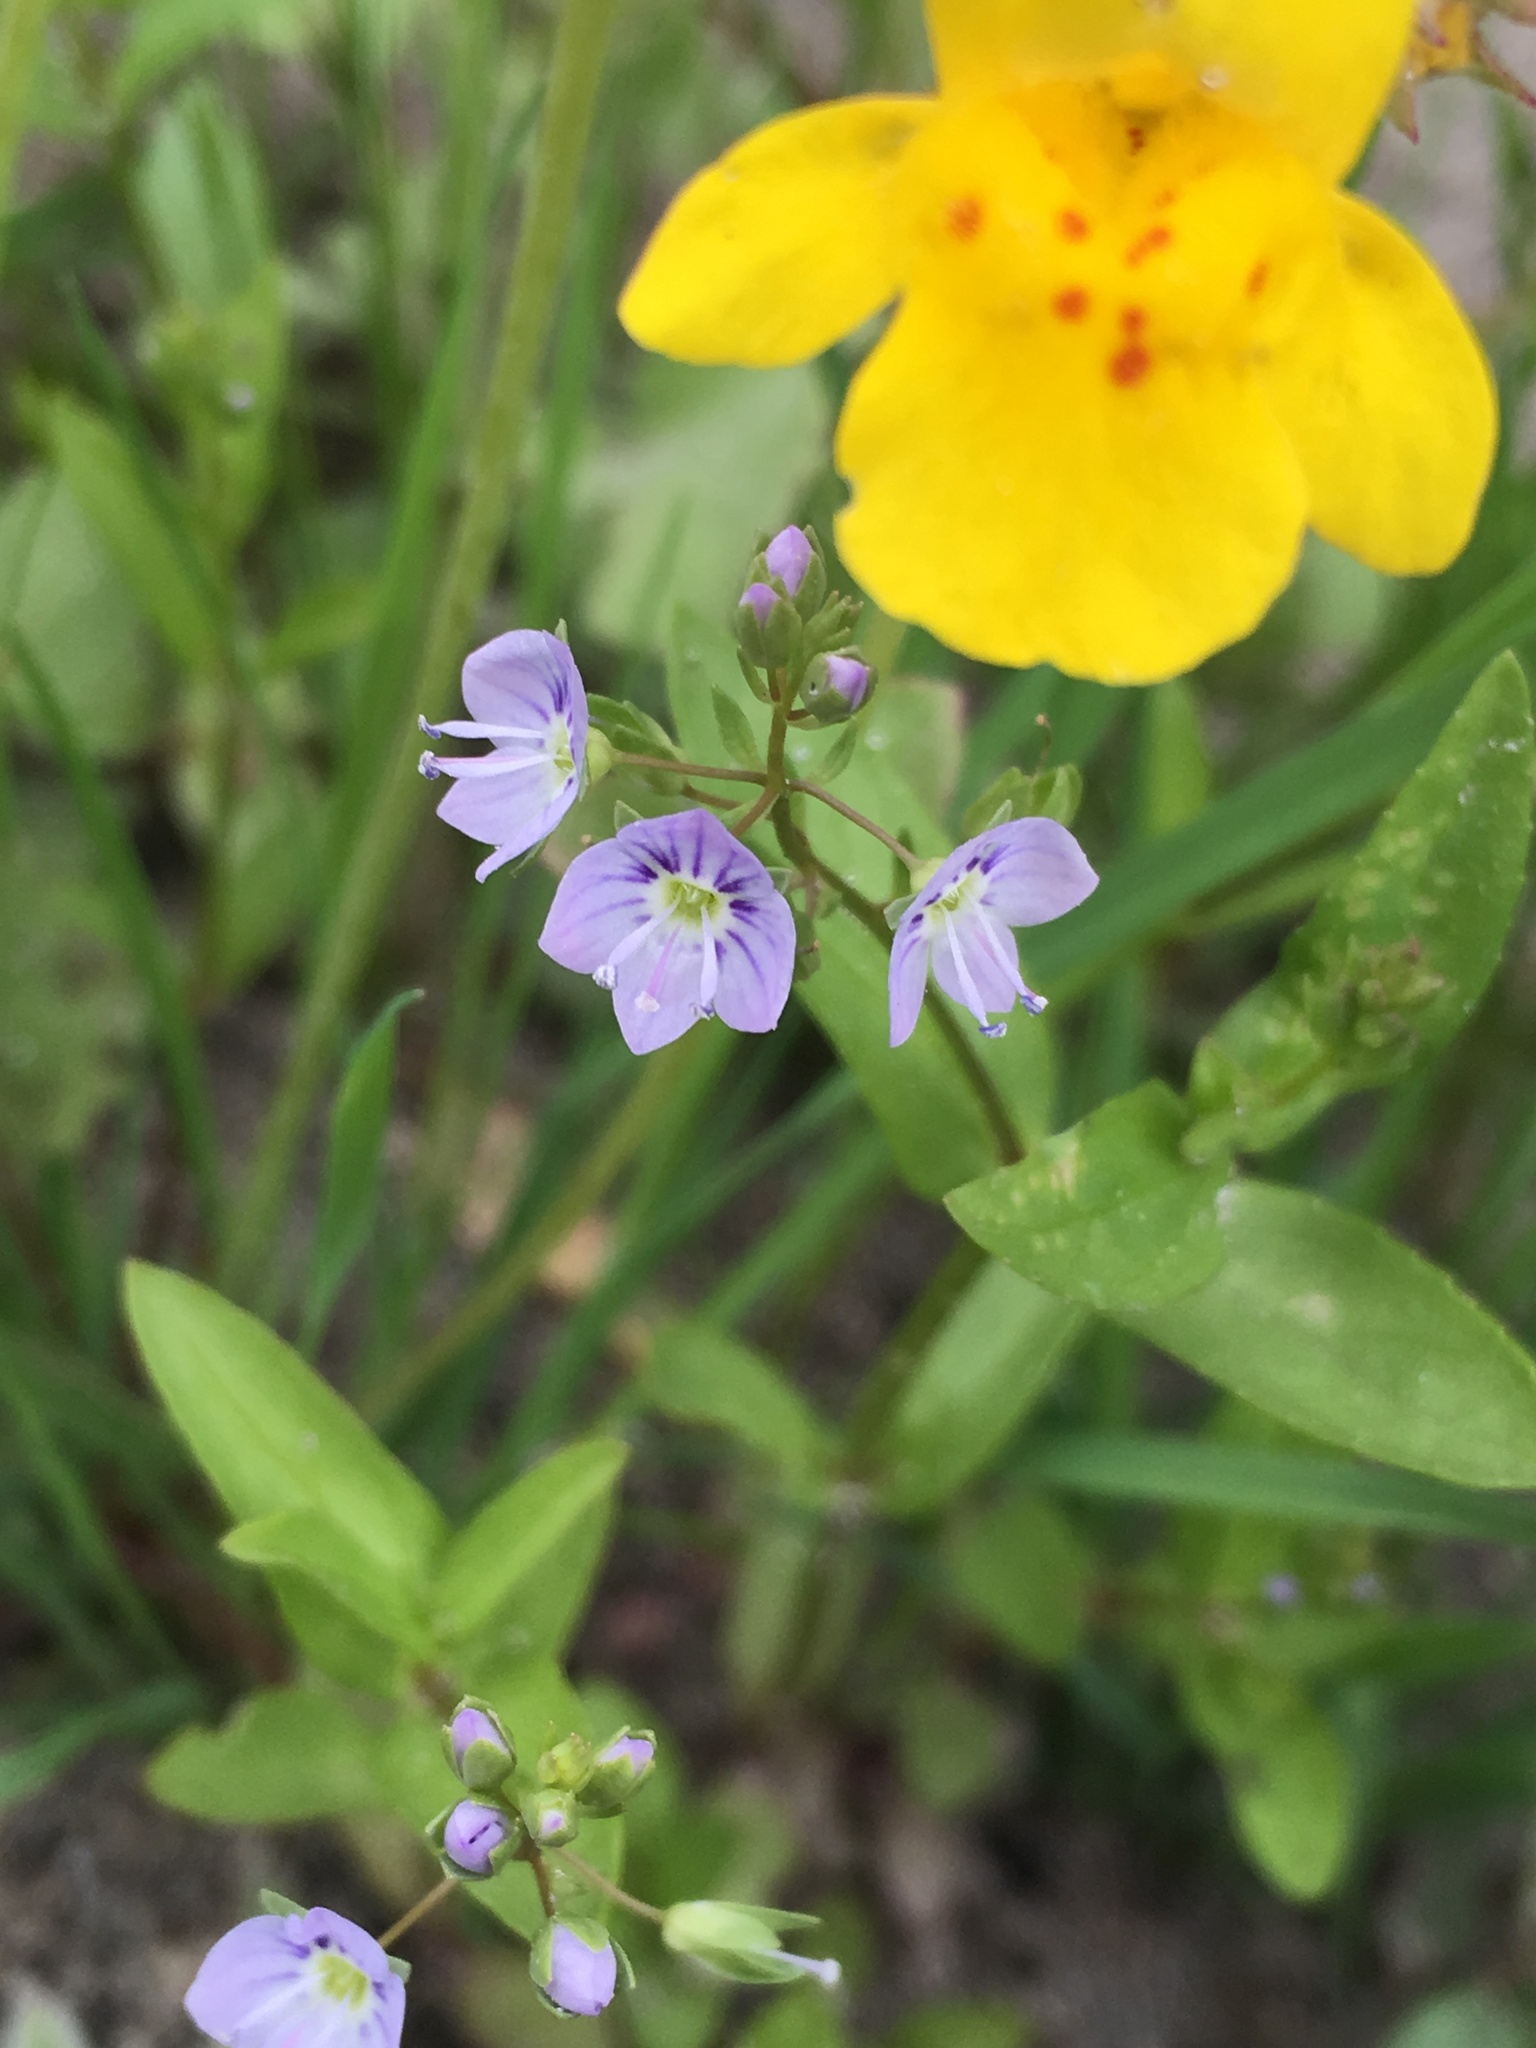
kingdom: Plantae
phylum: Tracheophyta
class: Magnoliopsida
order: Lamiales
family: Plantaginaceae
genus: Veronica
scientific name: Veronica anagallis-aquatica
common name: Water speedwell
